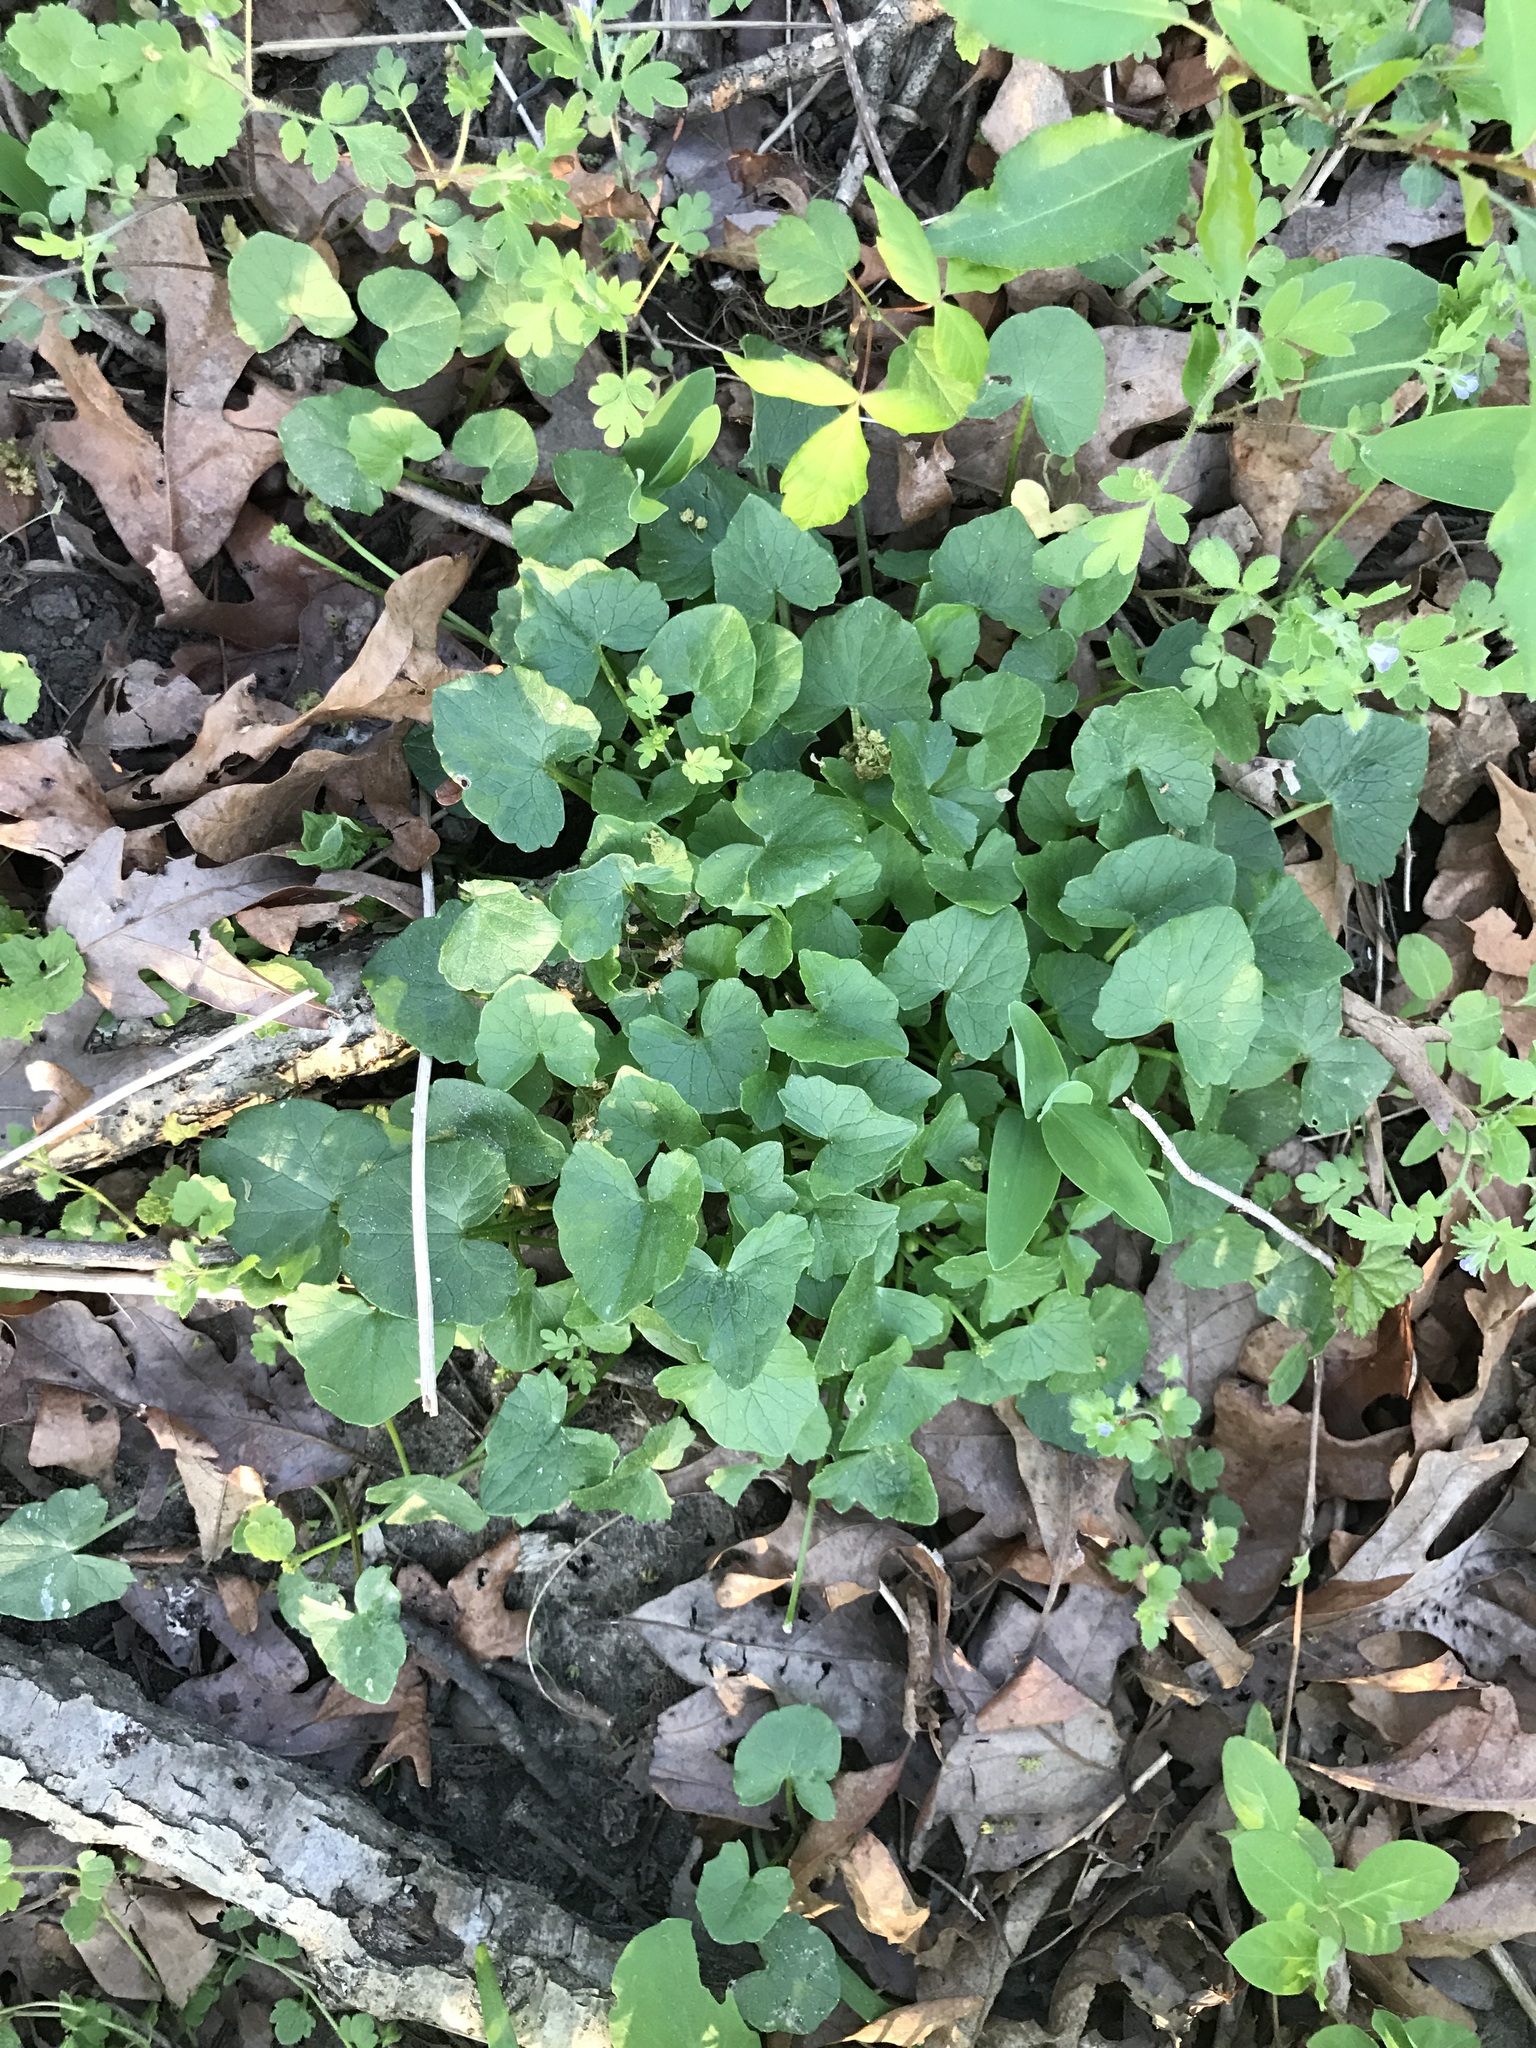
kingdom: Plantae
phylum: Tracheophyta
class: Magnoliopsida
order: Ranunculales
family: Ranunculaceae
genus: Ficaria
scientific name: Ficaria verna
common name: Lesser celandine
